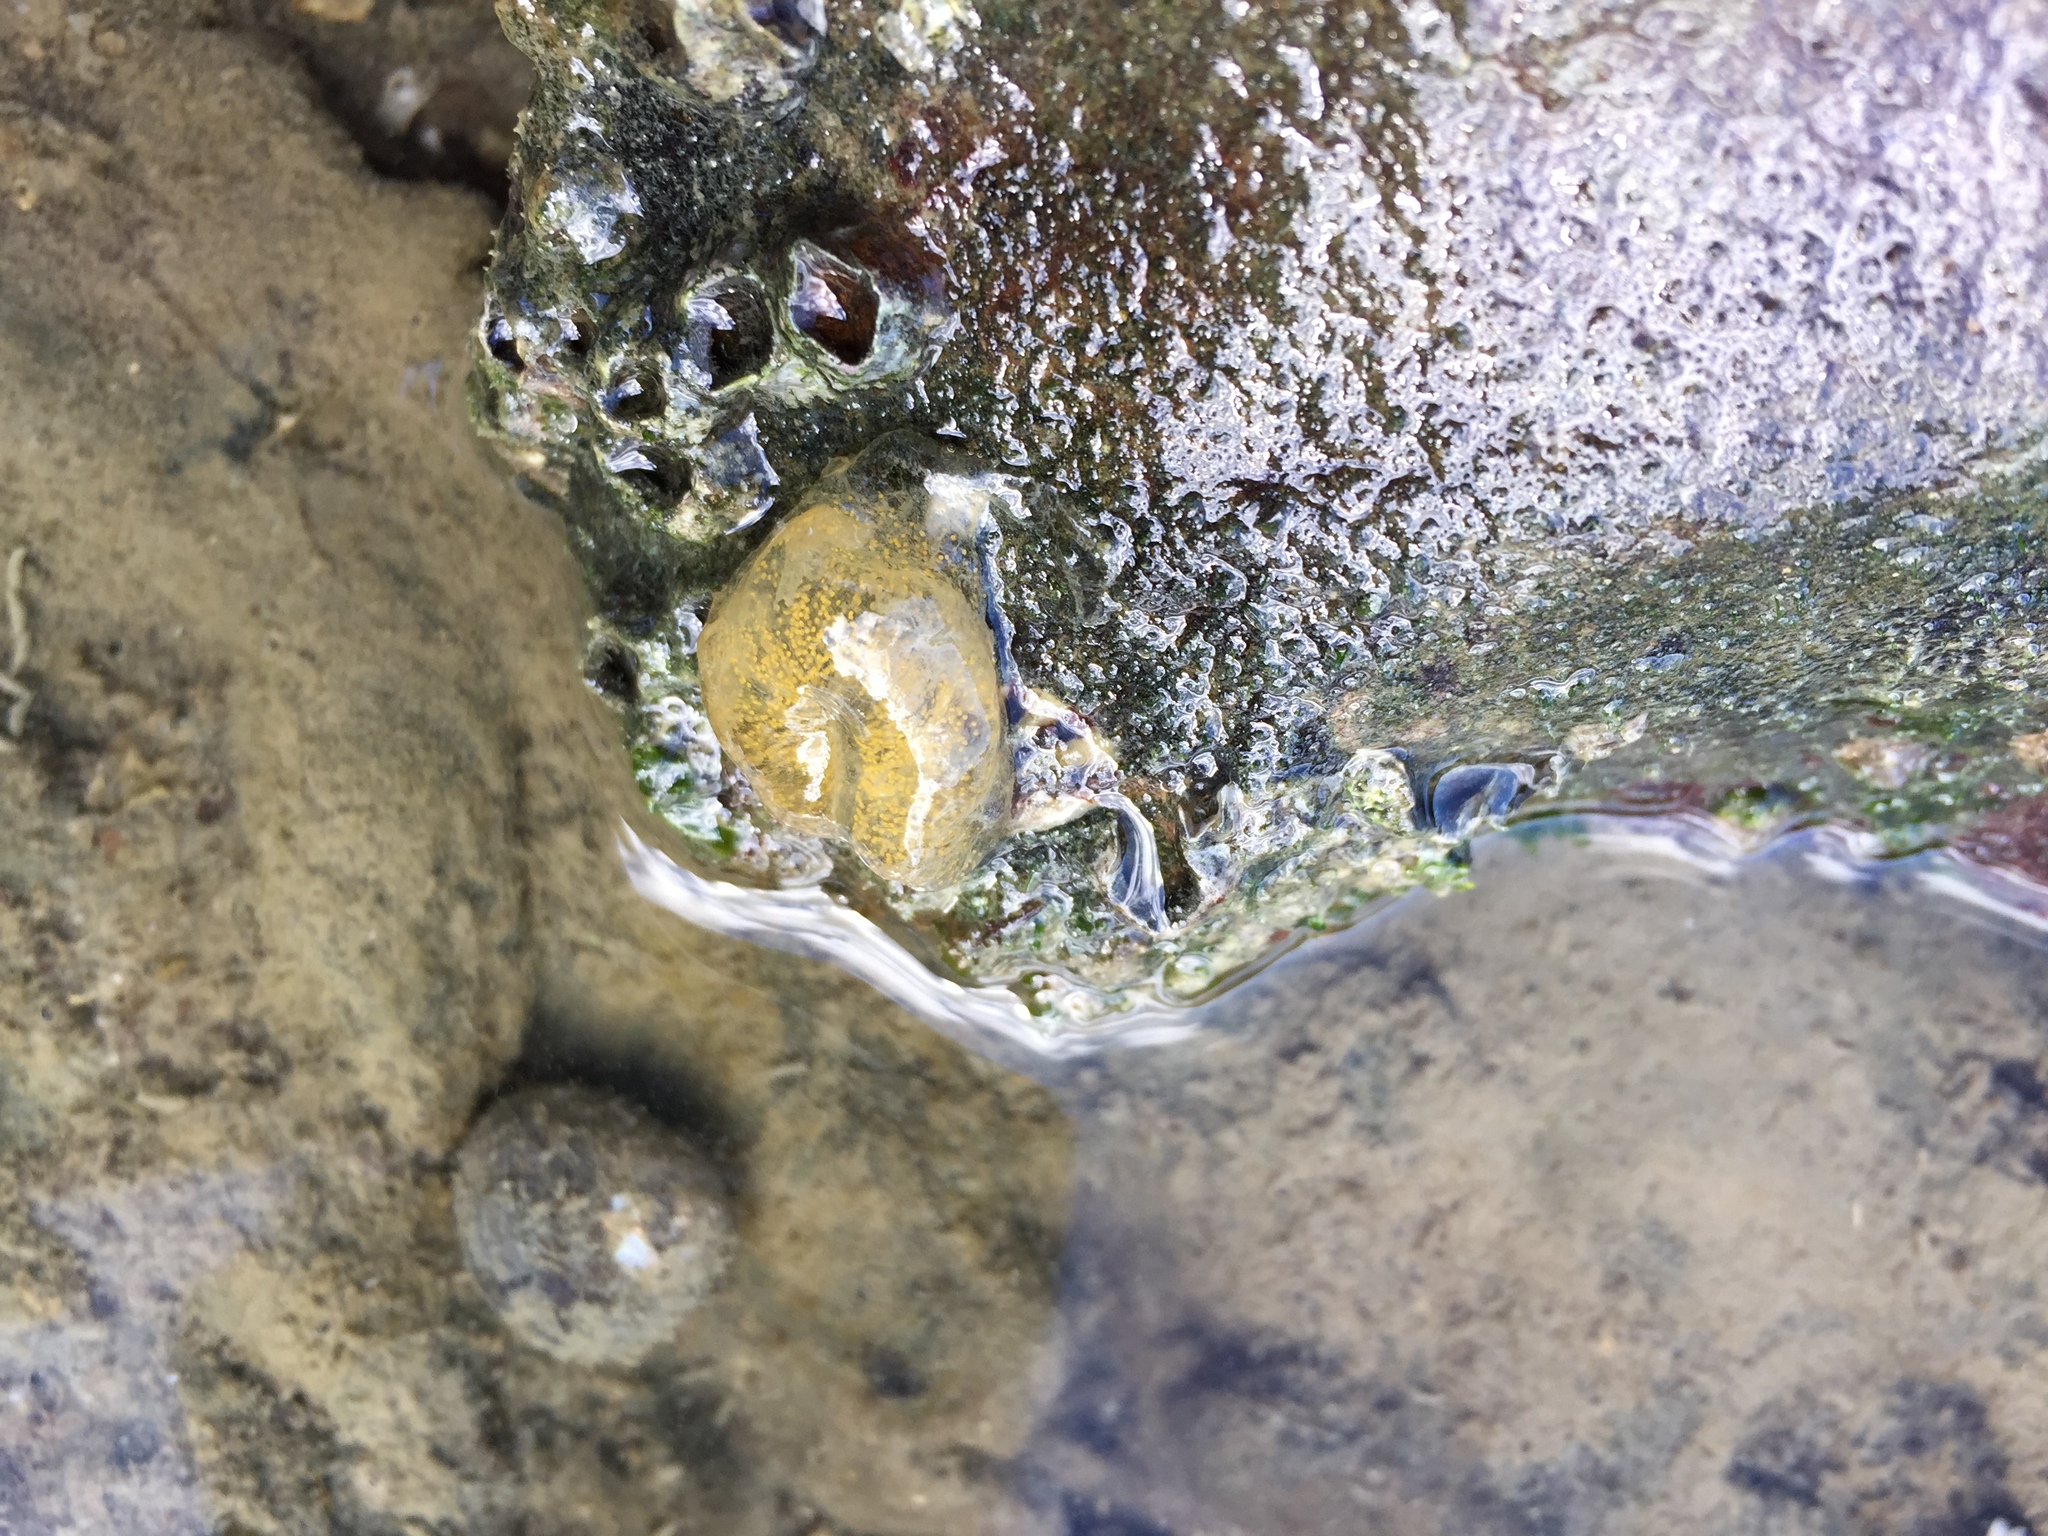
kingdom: Animalia
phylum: Mollusca
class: Gastropoda
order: Cephalaspidea
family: Haminoeidae
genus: Papawera
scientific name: Papawera zelandiae
